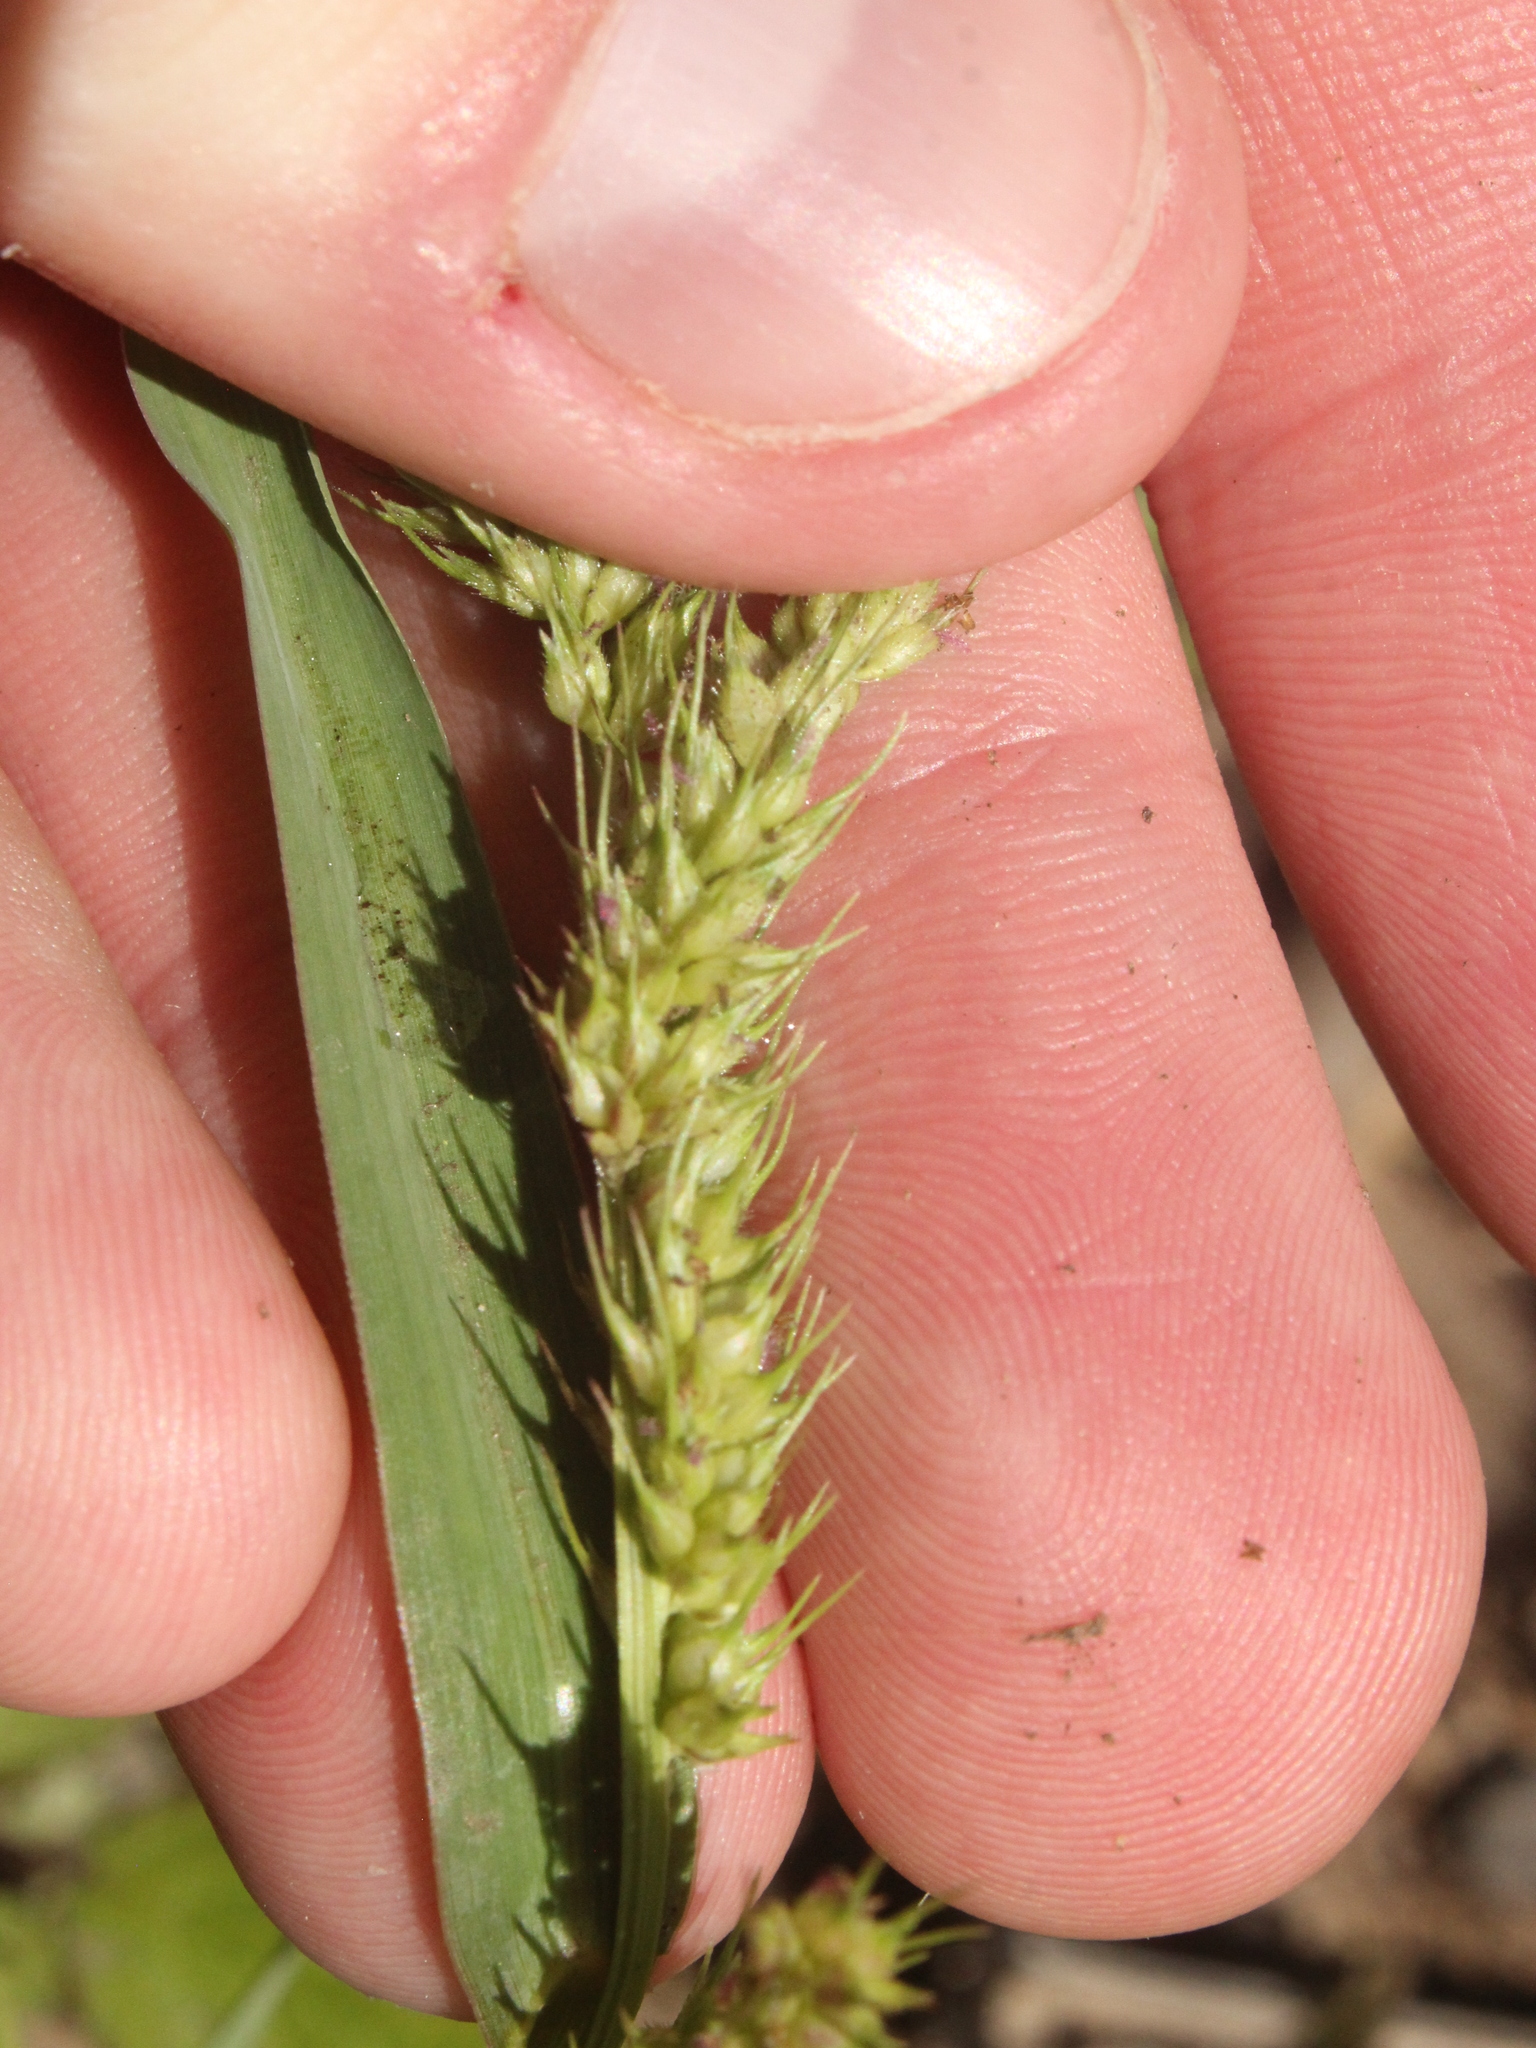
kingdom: Plantae
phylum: Tracheophyta
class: Liliopsida
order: Poales
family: Poaceae
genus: Echinochloa
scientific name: Echinochloa crus-galli
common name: Cockspur
